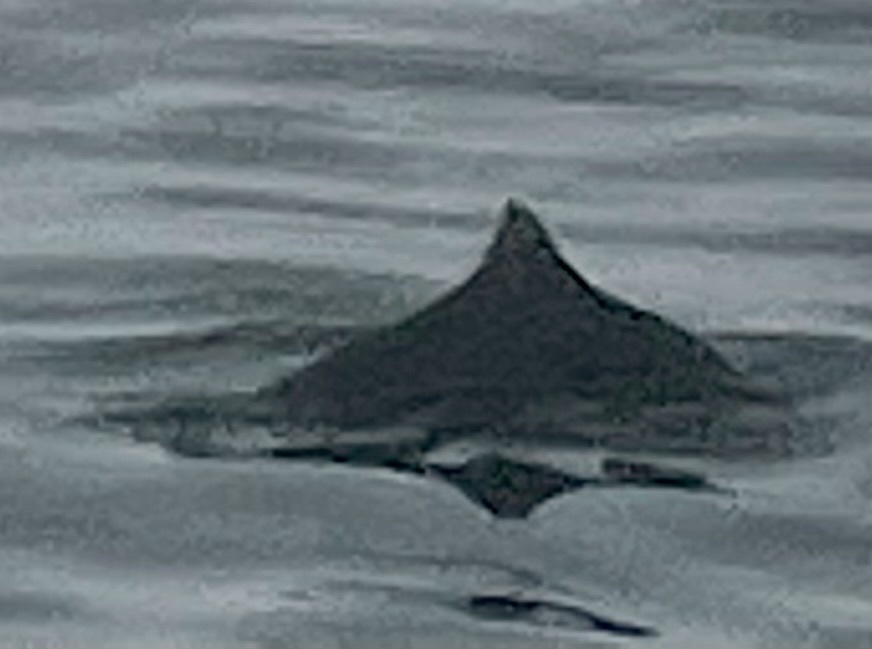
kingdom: Animalia
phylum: Chordata
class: Mammalia
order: Cetacea
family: Phocoenidae
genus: Phocoenoides
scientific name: Phocoenoides dalli
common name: Dall's porpoise
